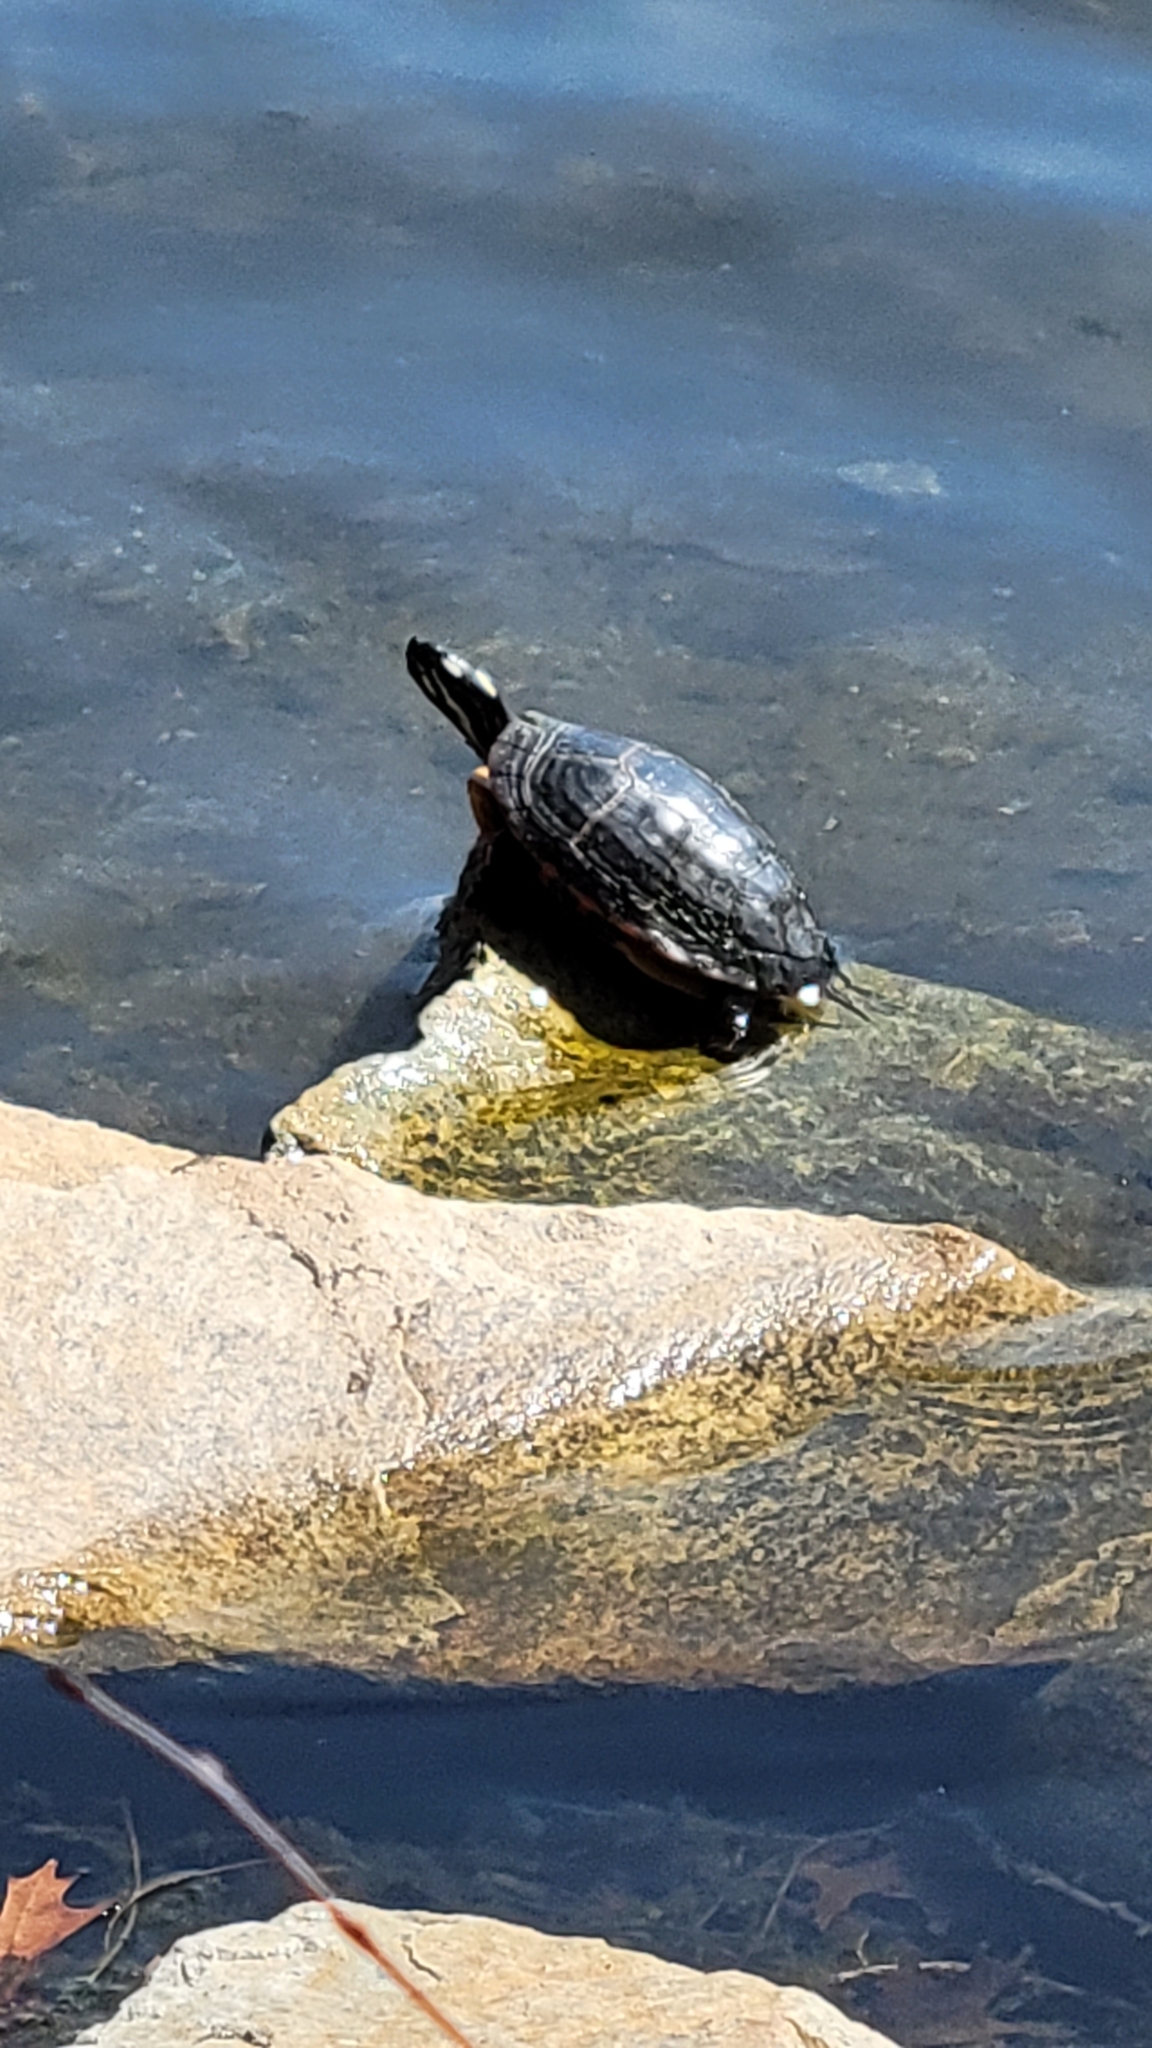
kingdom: Animalia
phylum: Chordata
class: Testudines
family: Emydidae
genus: Chrysemys
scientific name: Chrysemys picta
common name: Painted turtle
